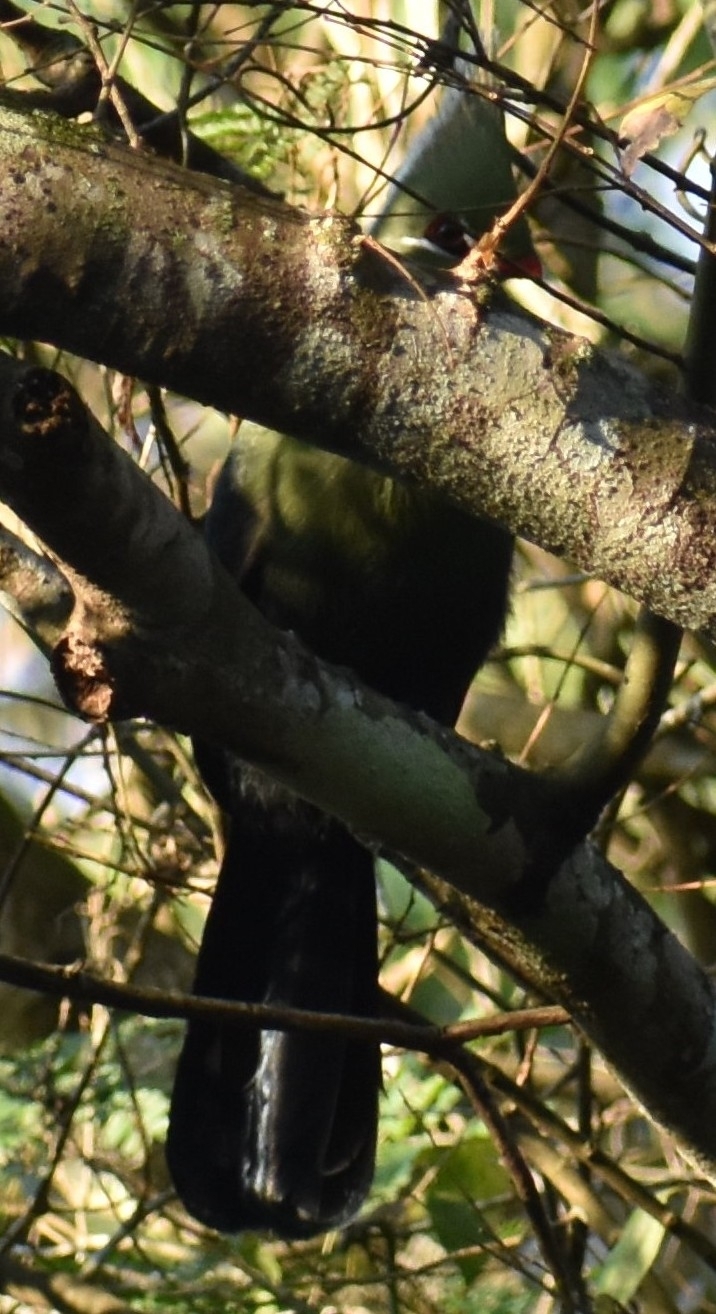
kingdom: Animalia
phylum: Chordata
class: Aves
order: Musophagiformes
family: Musophagidae
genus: Tauraco
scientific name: Tauraco livingstonii
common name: Livingstone's turaco
